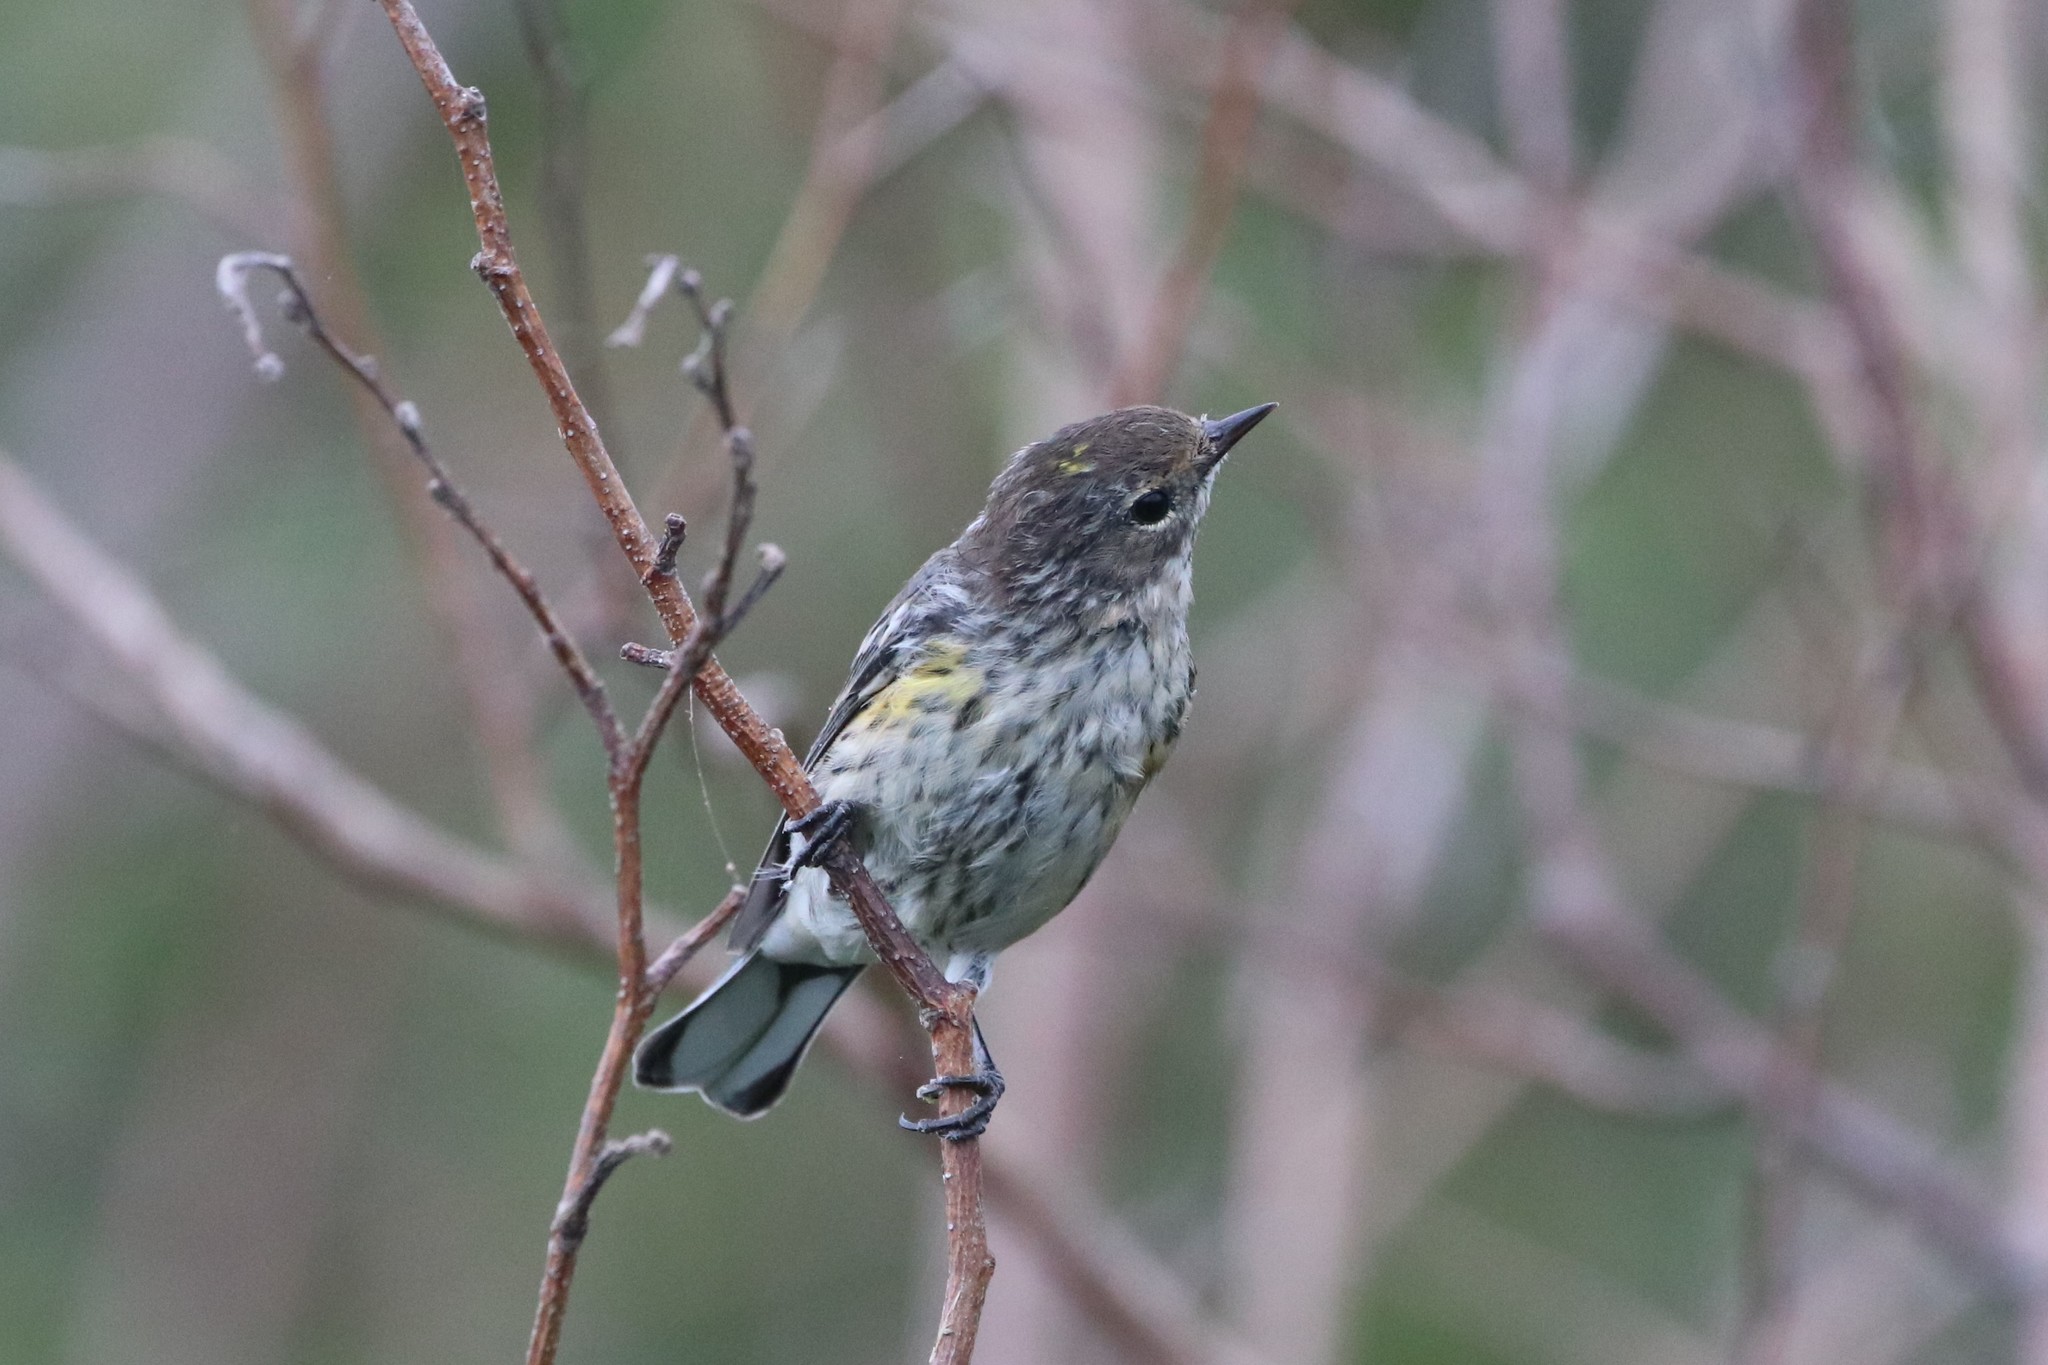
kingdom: Animalia
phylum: Chordata
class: Aves
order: Passeriformes
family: Parulidae
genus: Setophaga
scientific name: Setophaga coronata
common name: Myrtle warbler
